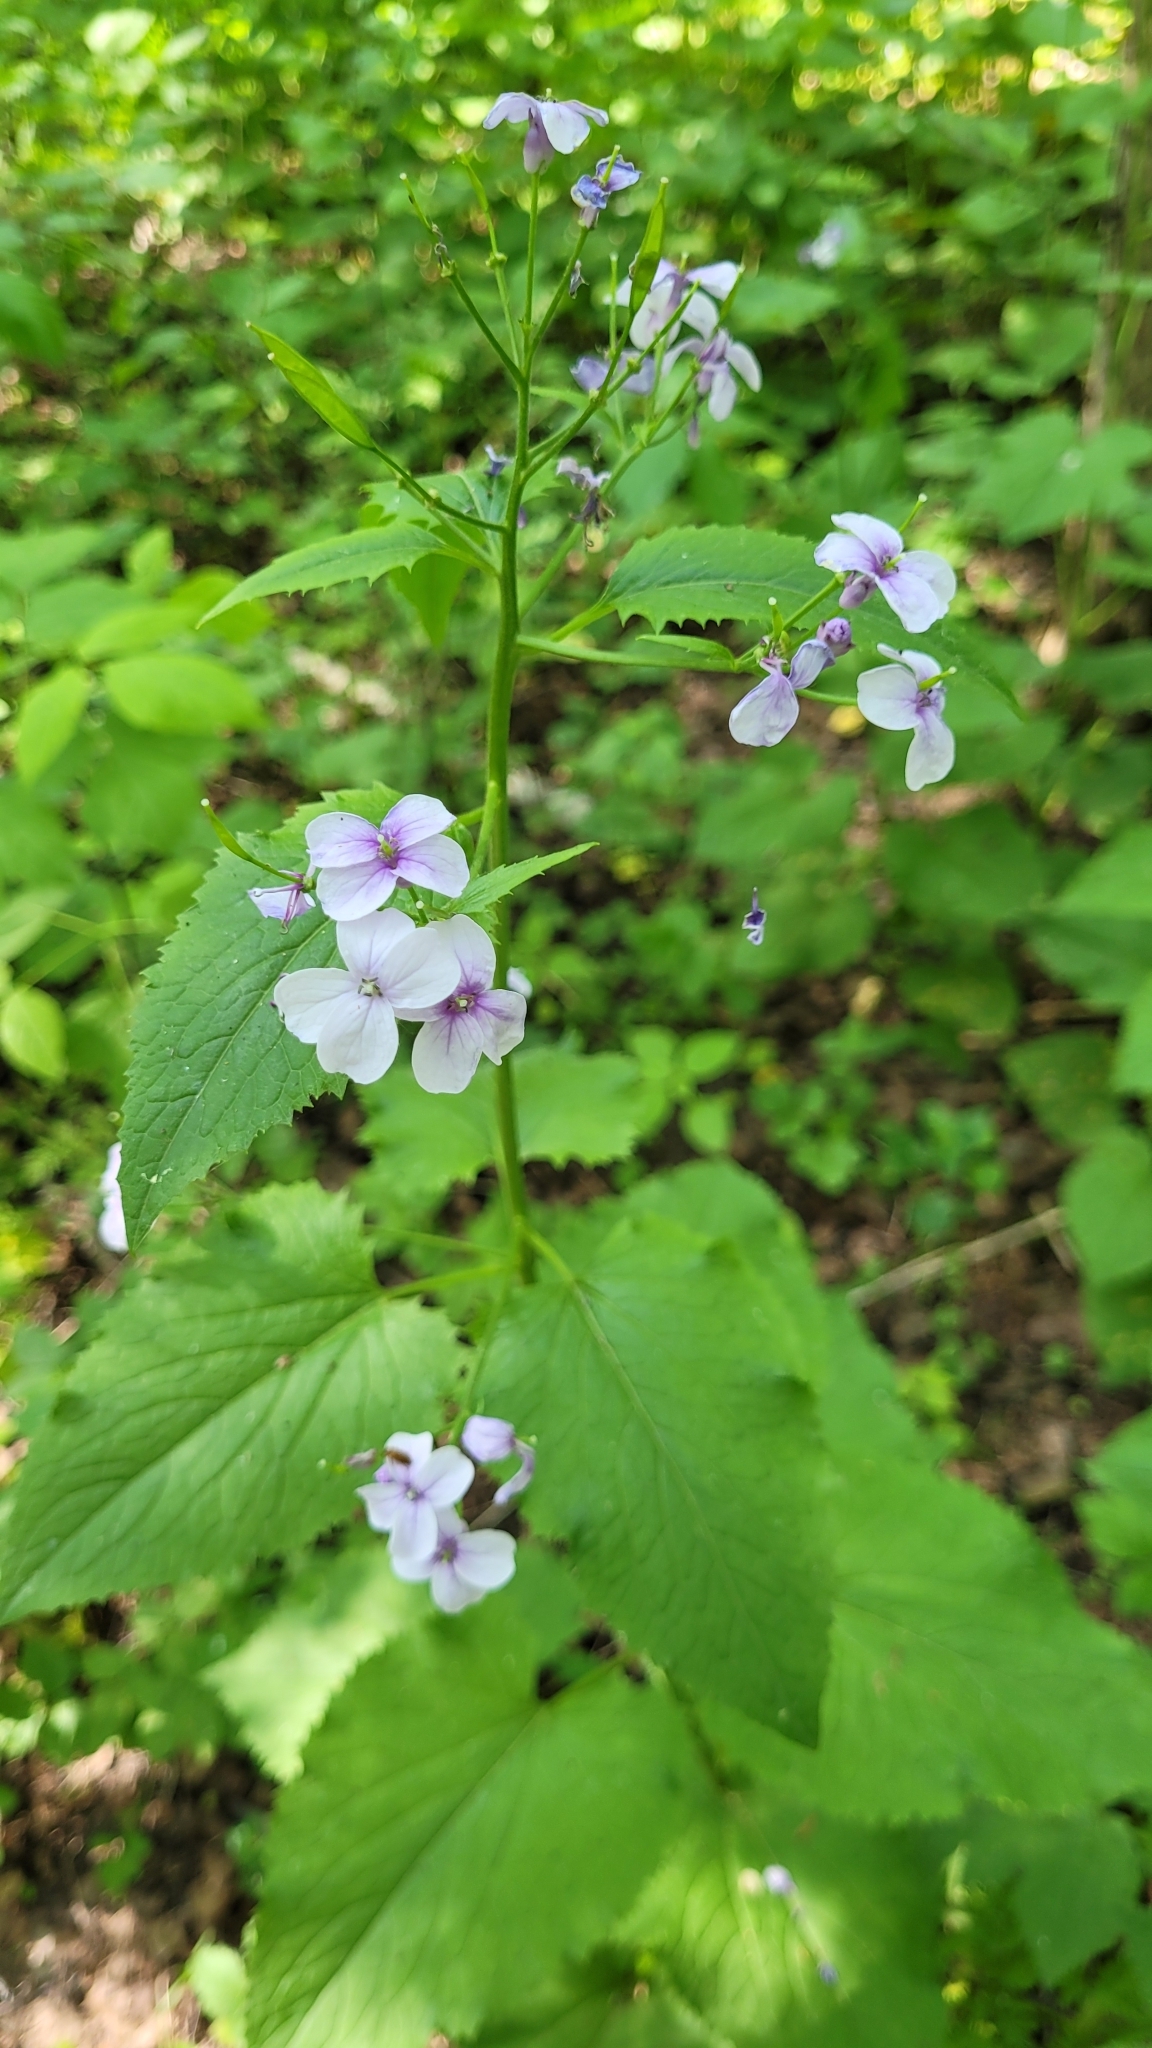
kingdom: Plantae
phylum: Tracheophyta
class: Magnoliopsida
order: Brassicales
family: Brassicaceae
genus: Lunaria
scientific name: Lunaria rediviva
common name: Perennial honesty
